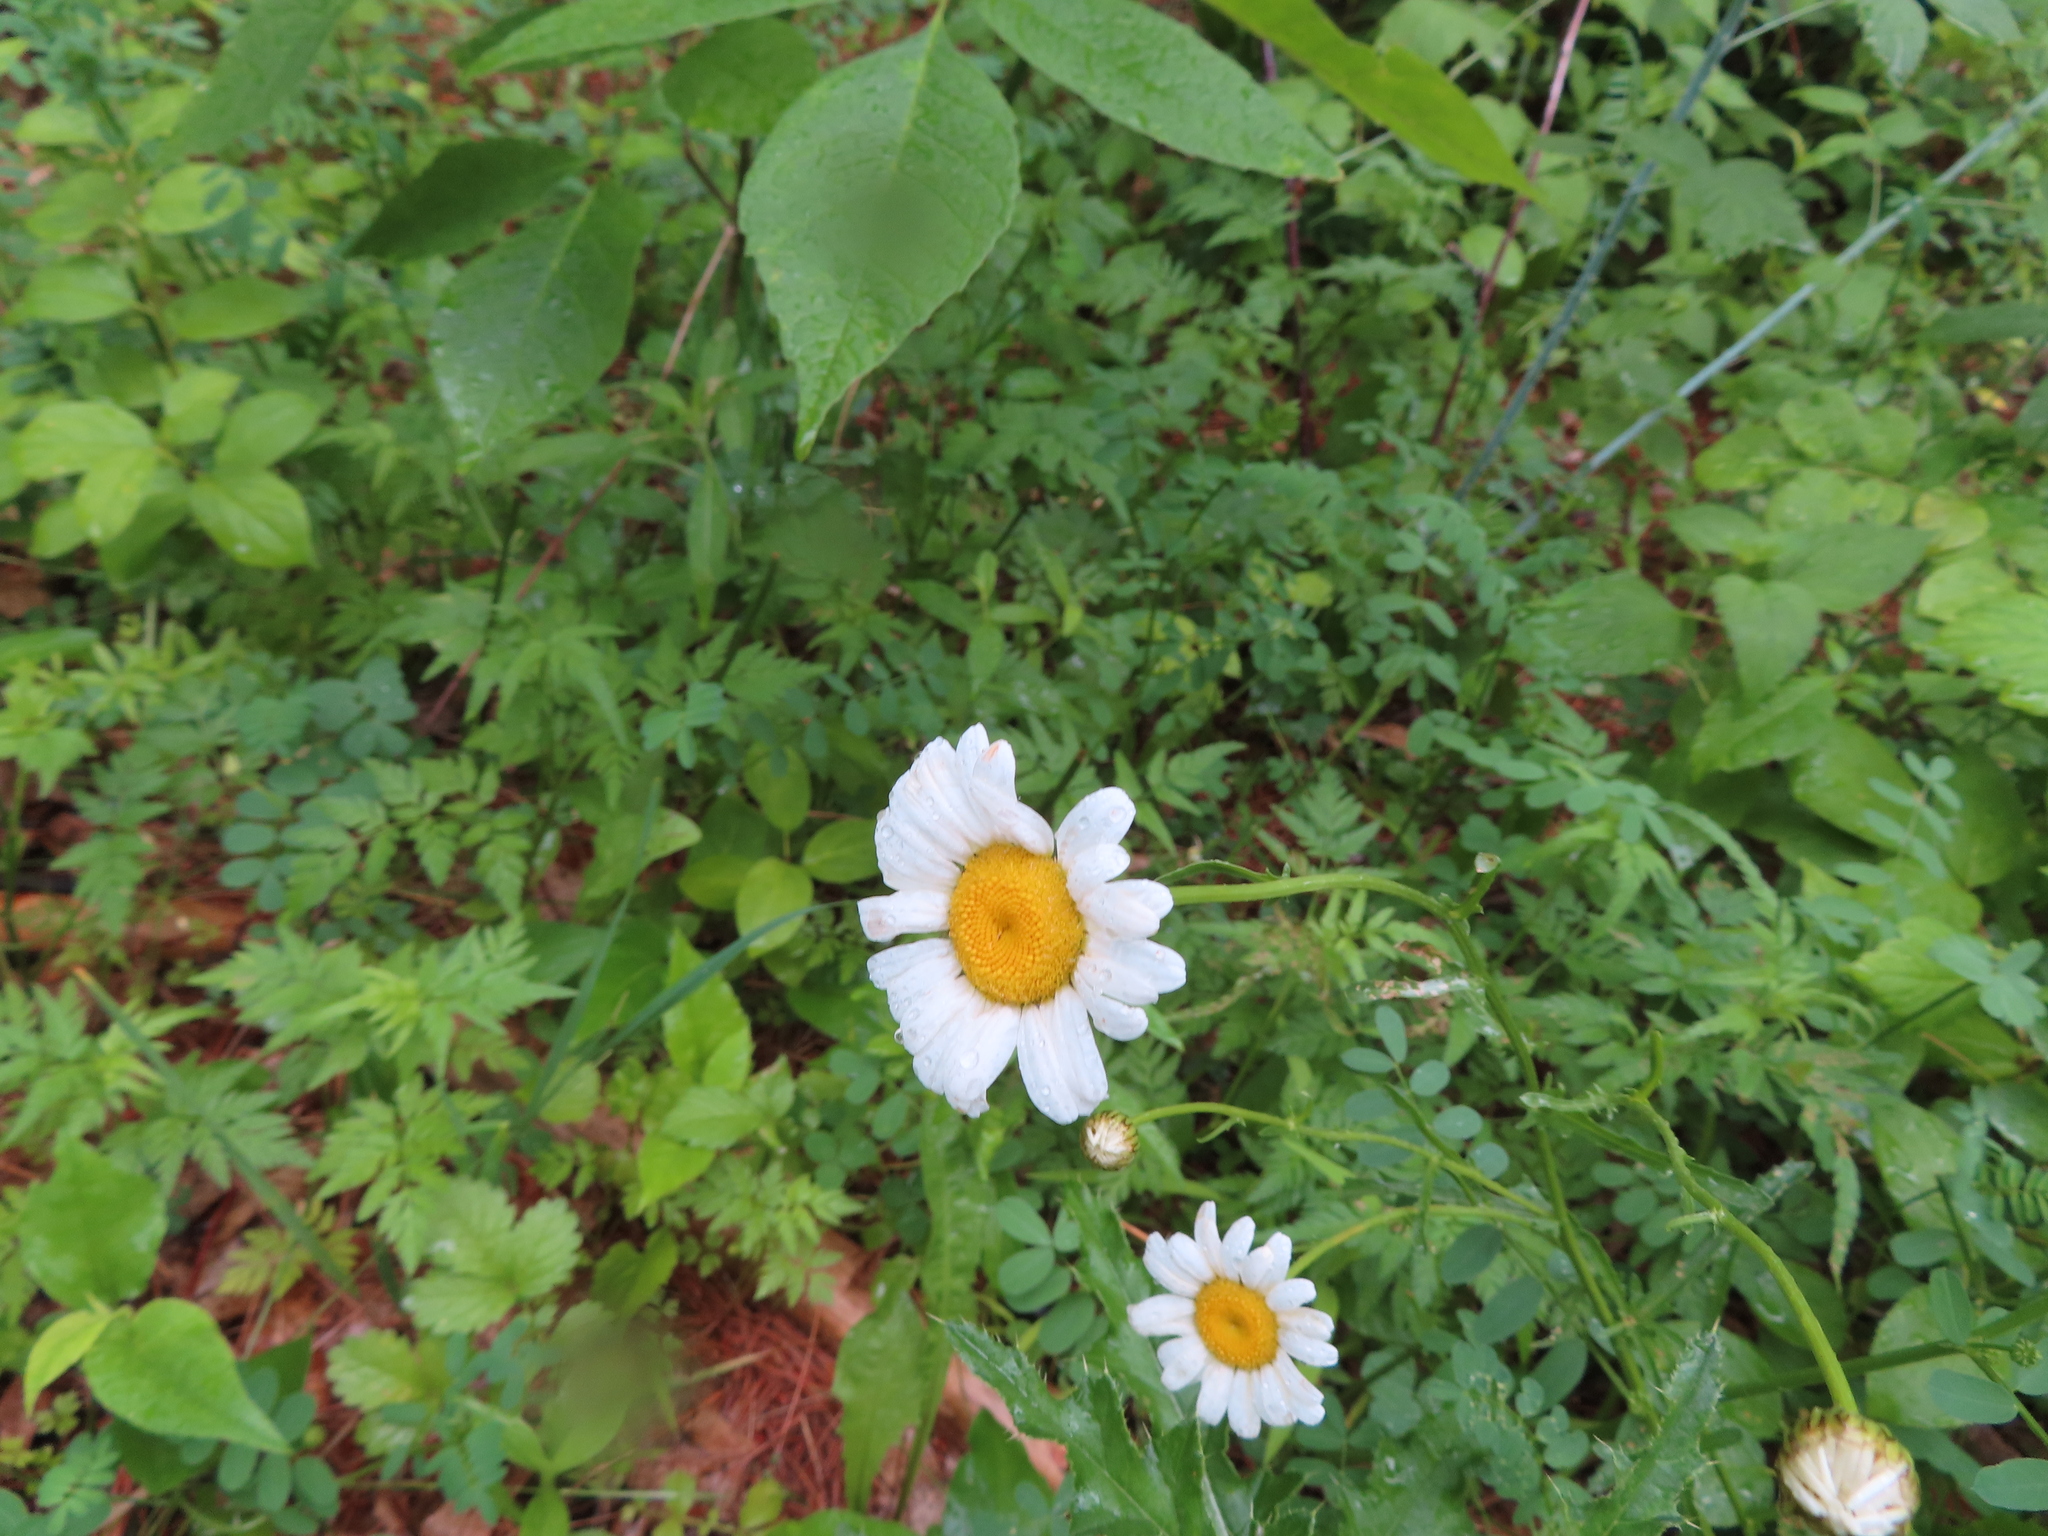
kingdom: Plantae
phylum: Tracheophyta
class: Magnoliopsida
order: Asterales
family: Asteraceae
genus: Leucanthemum
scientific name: Leucanthemum vulgare
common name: Oxeye daisy
